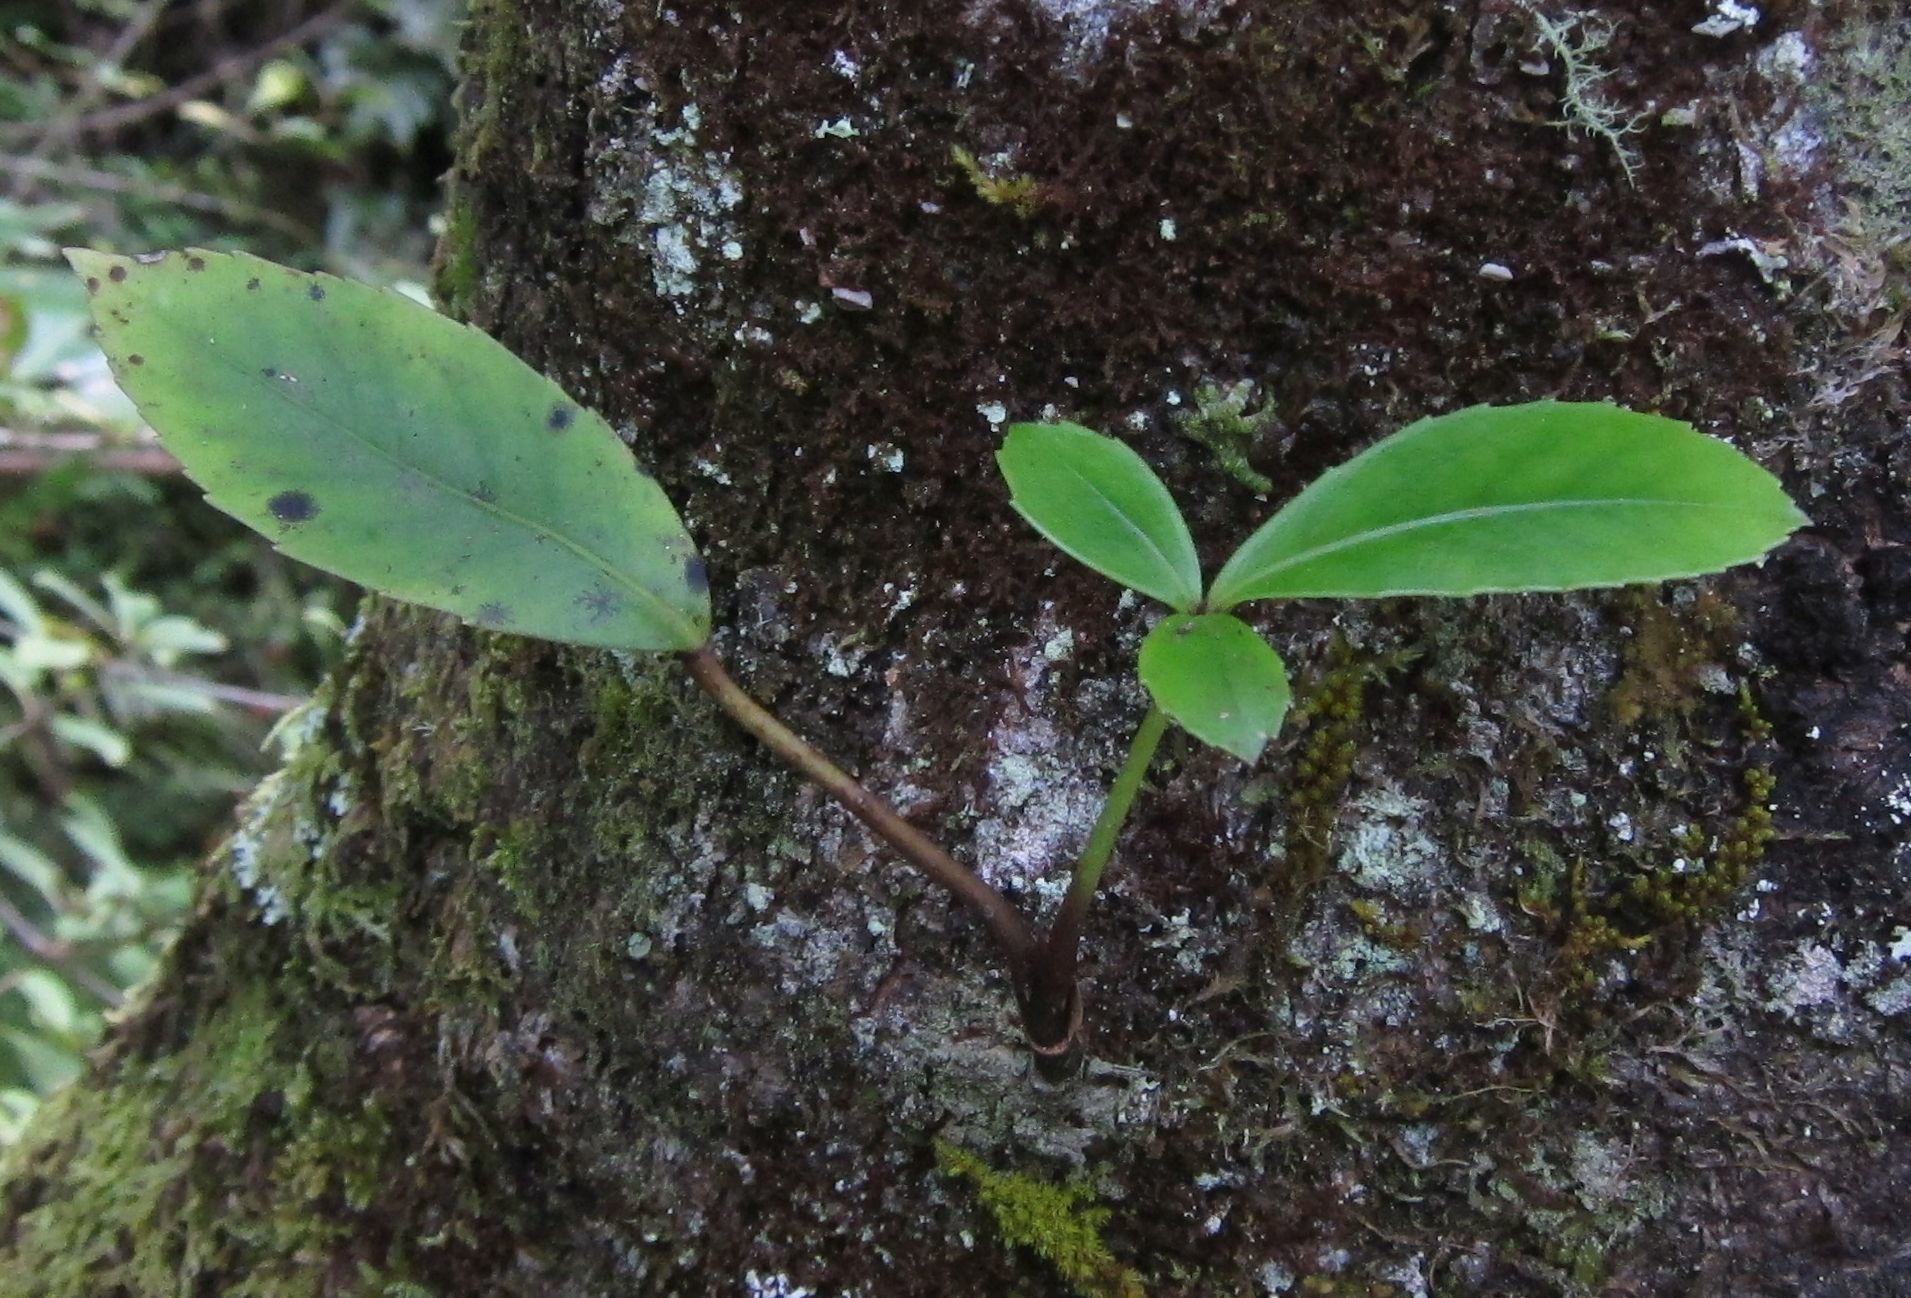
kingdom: Plantae
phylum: Tracheophyta
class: Magnoliopsida
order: Apiales
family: Araliaceae
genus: Raukaua
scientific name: Raukaua simplex
